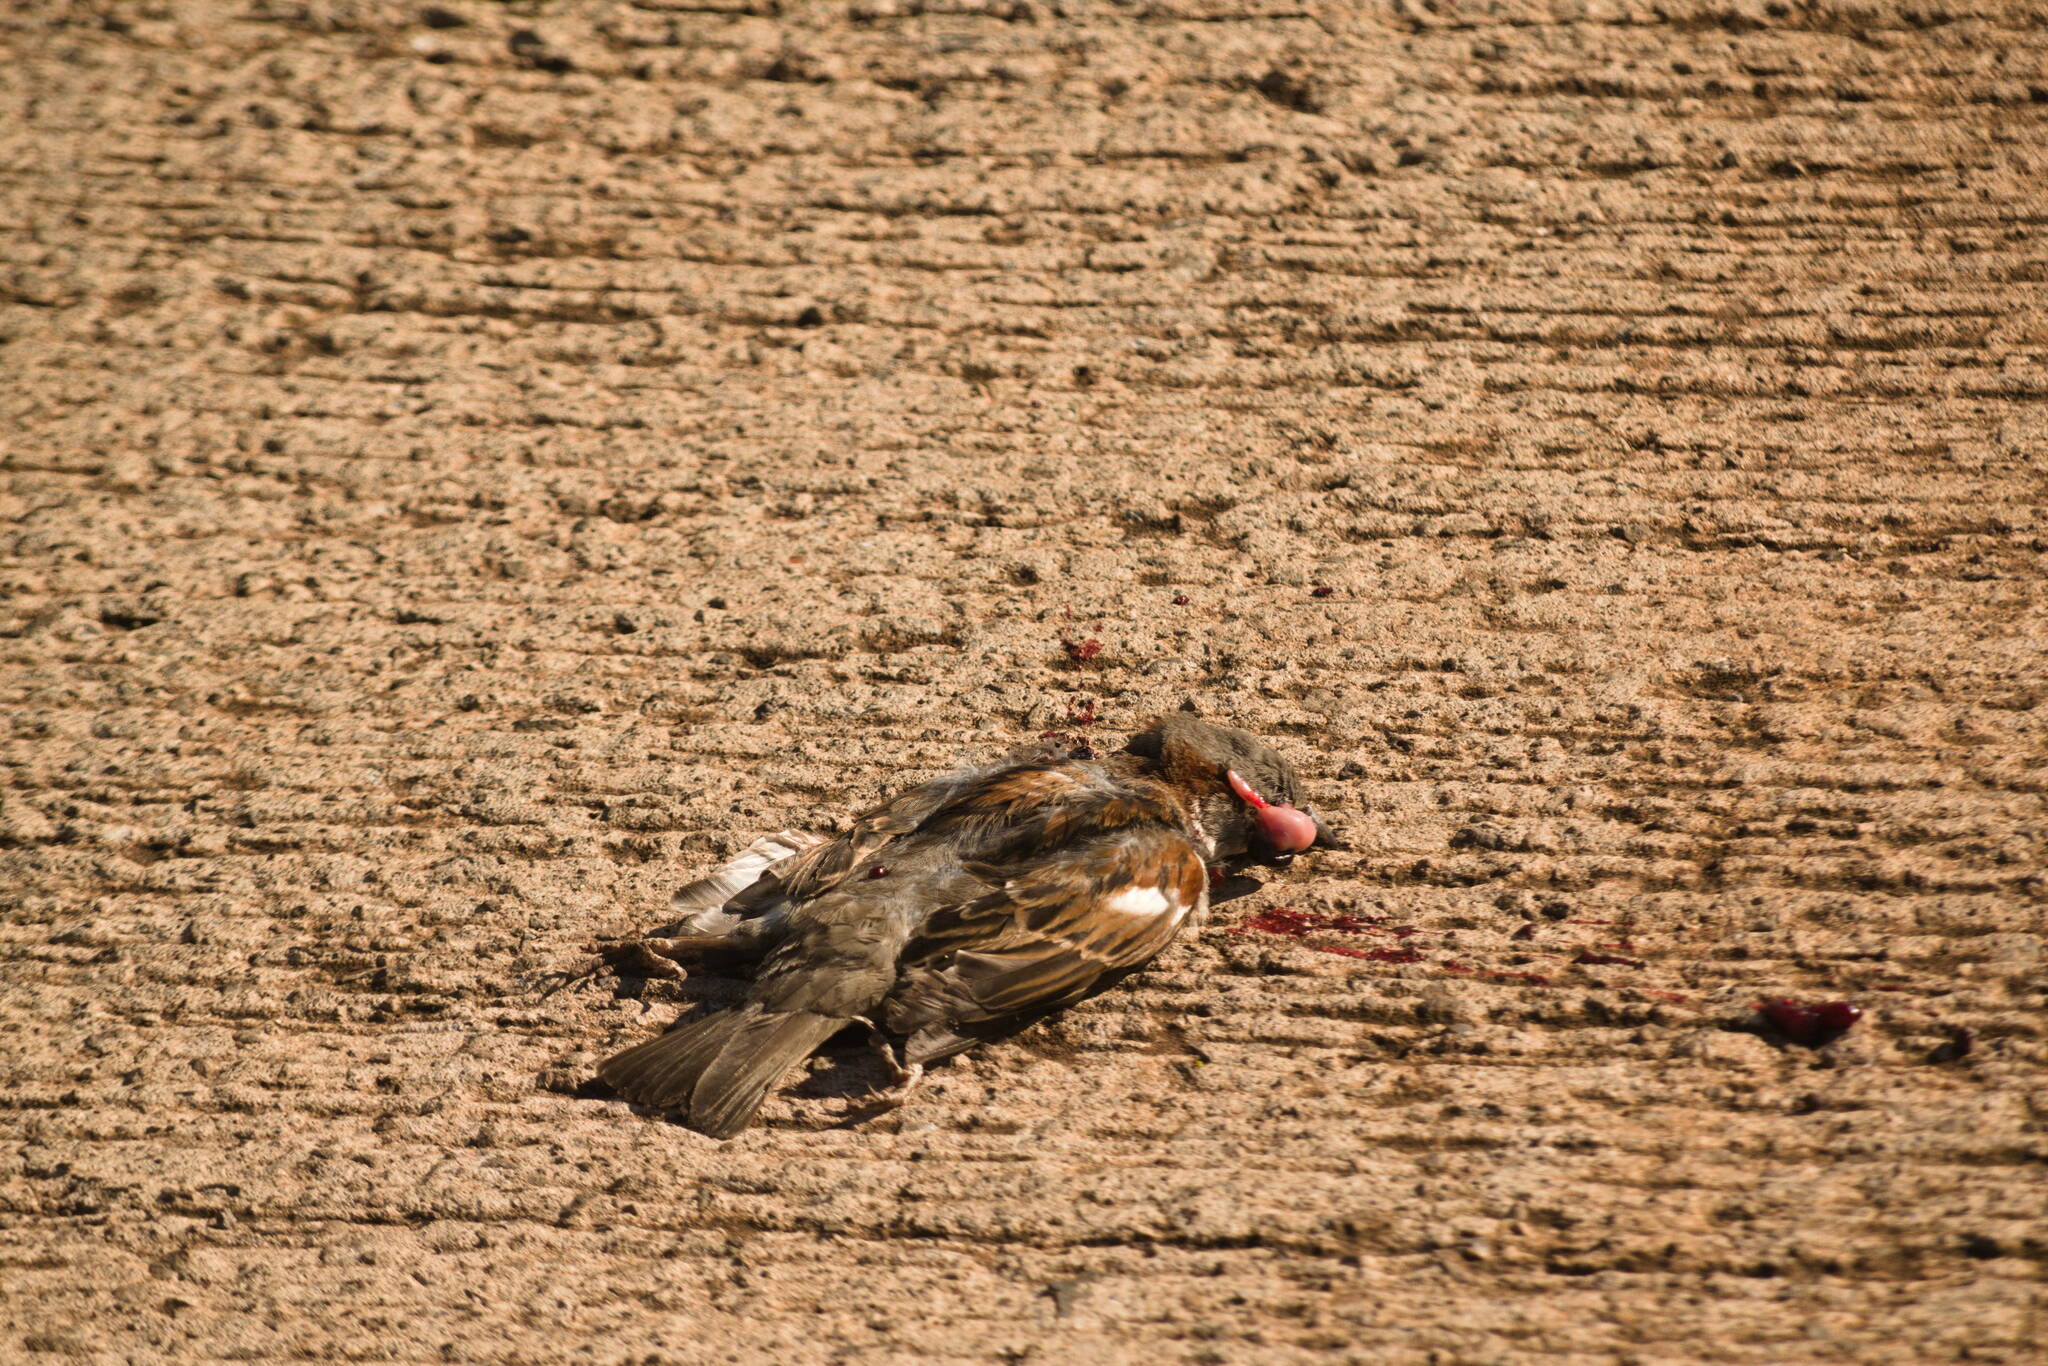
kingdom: Animalia
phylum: Chordata
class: Aves
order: Passeriformes
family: Passeridae
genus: Passer
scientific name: Passer domesticus
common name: House sparrow
